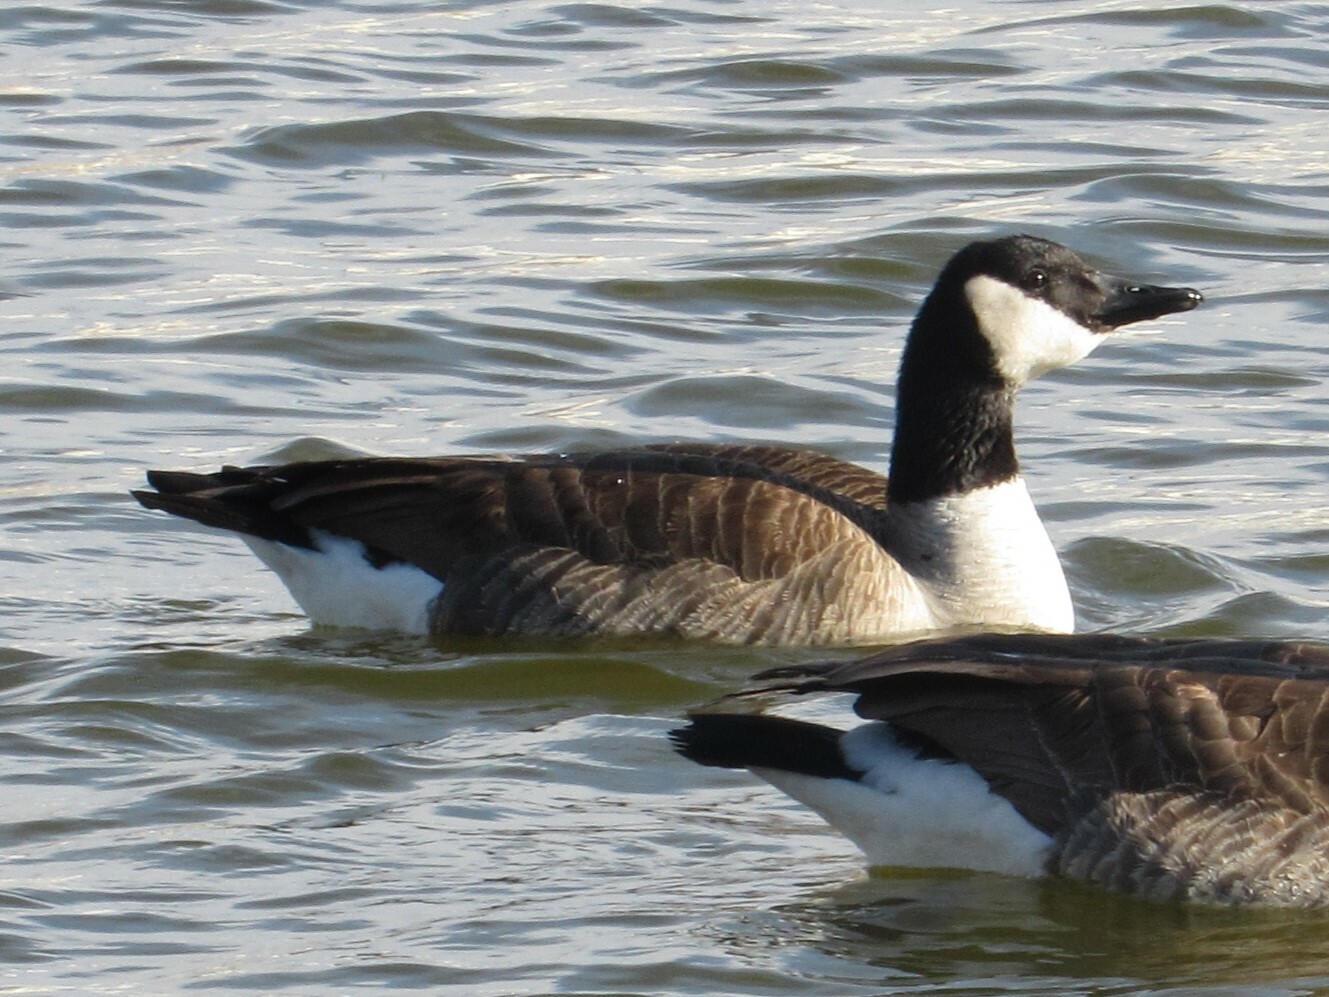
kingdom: Animalia
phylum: Chordata
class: Aves
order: Anseriformes
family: Anatidae
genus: Branta
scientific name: Branta canadensis
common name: Canada goose
